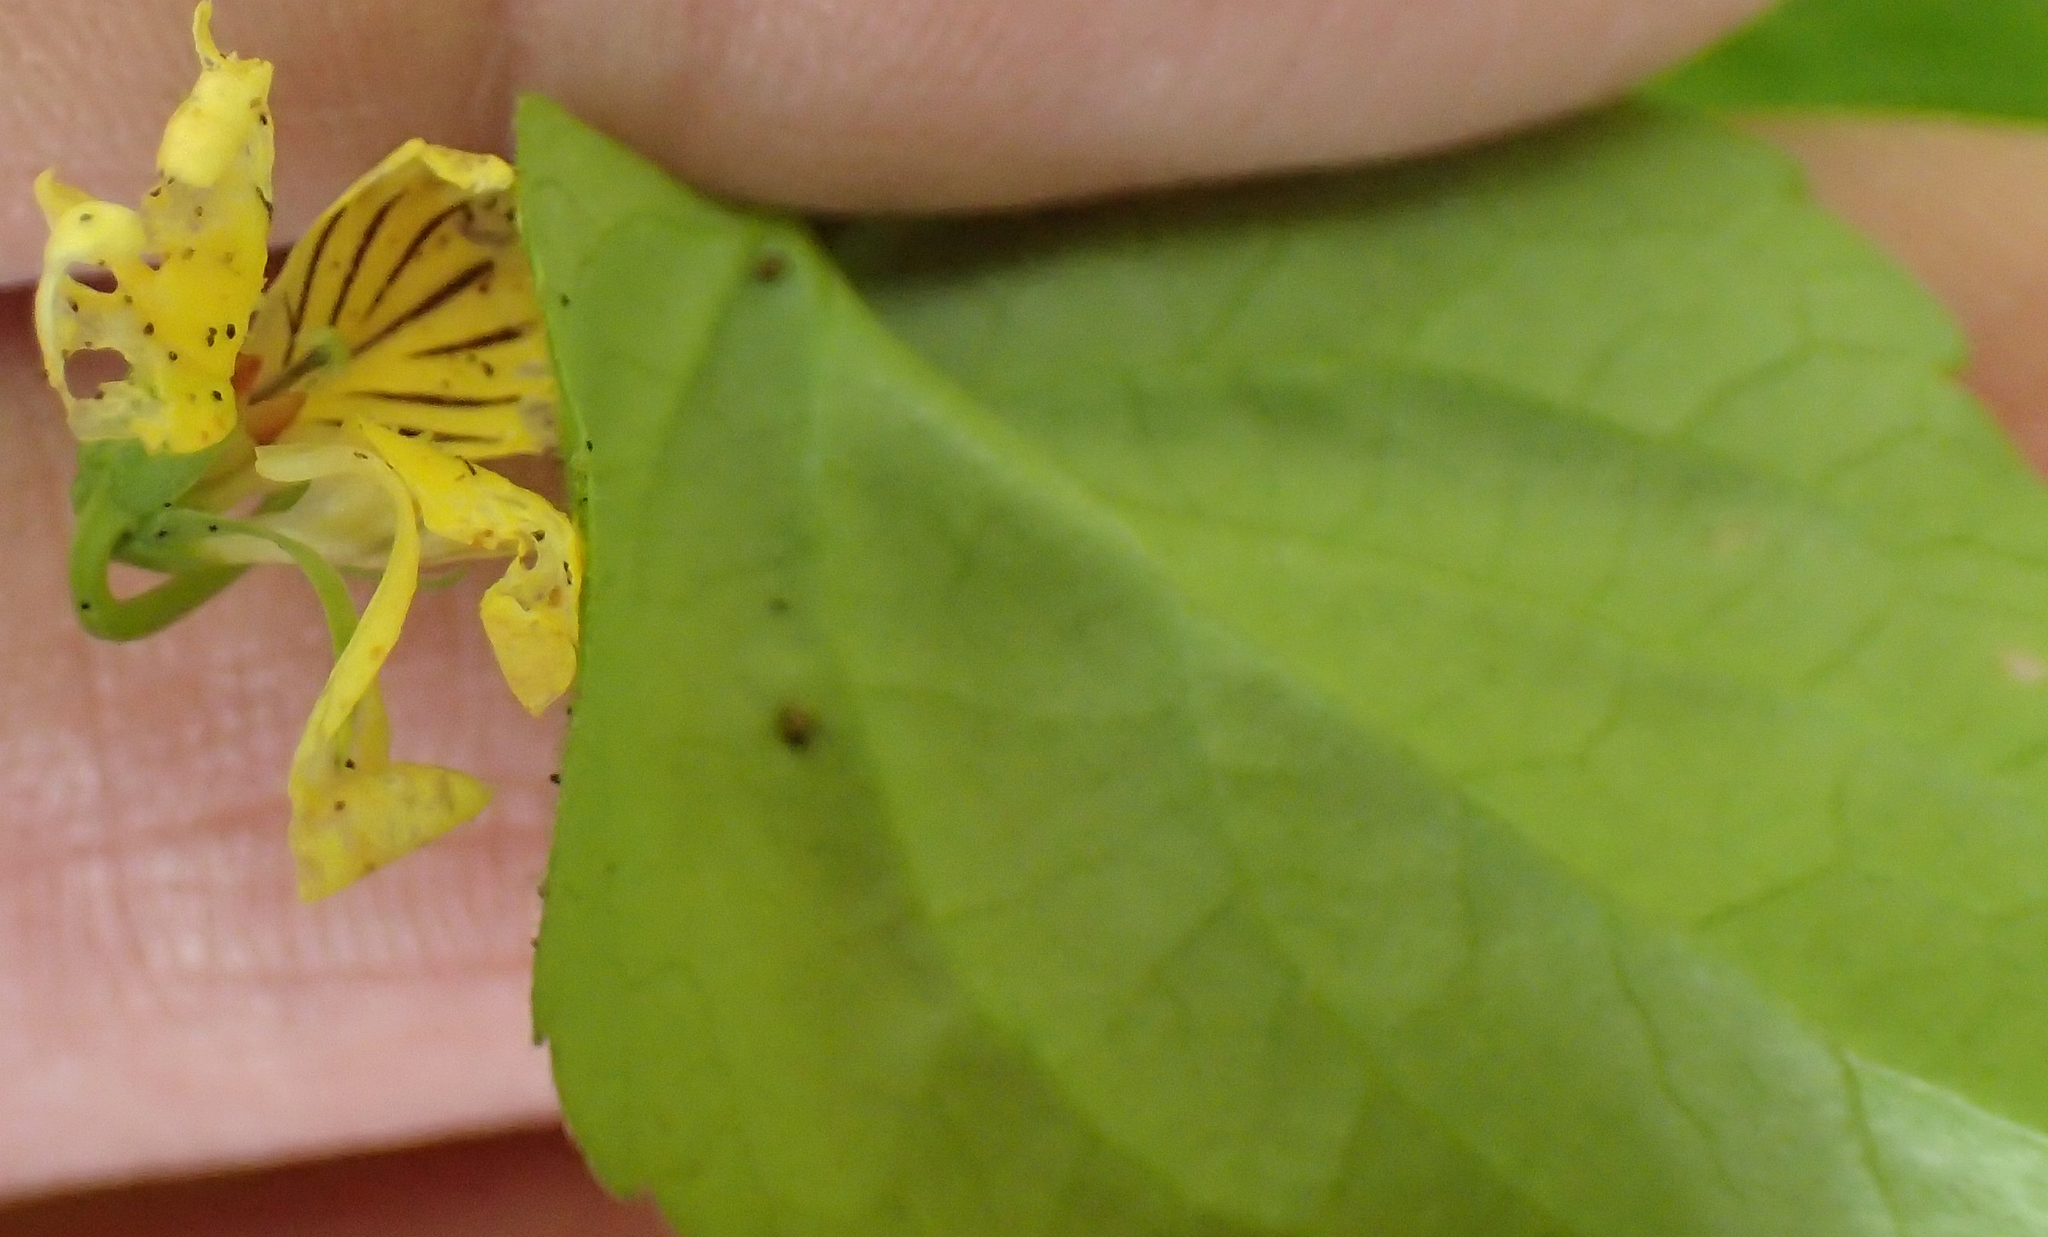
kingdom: Plantae
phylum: Tracheophyta
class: Magnoliopsida
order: Malpighiales
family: Violaceae
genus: Viola
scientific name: Viola glabella
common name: Stream violet
